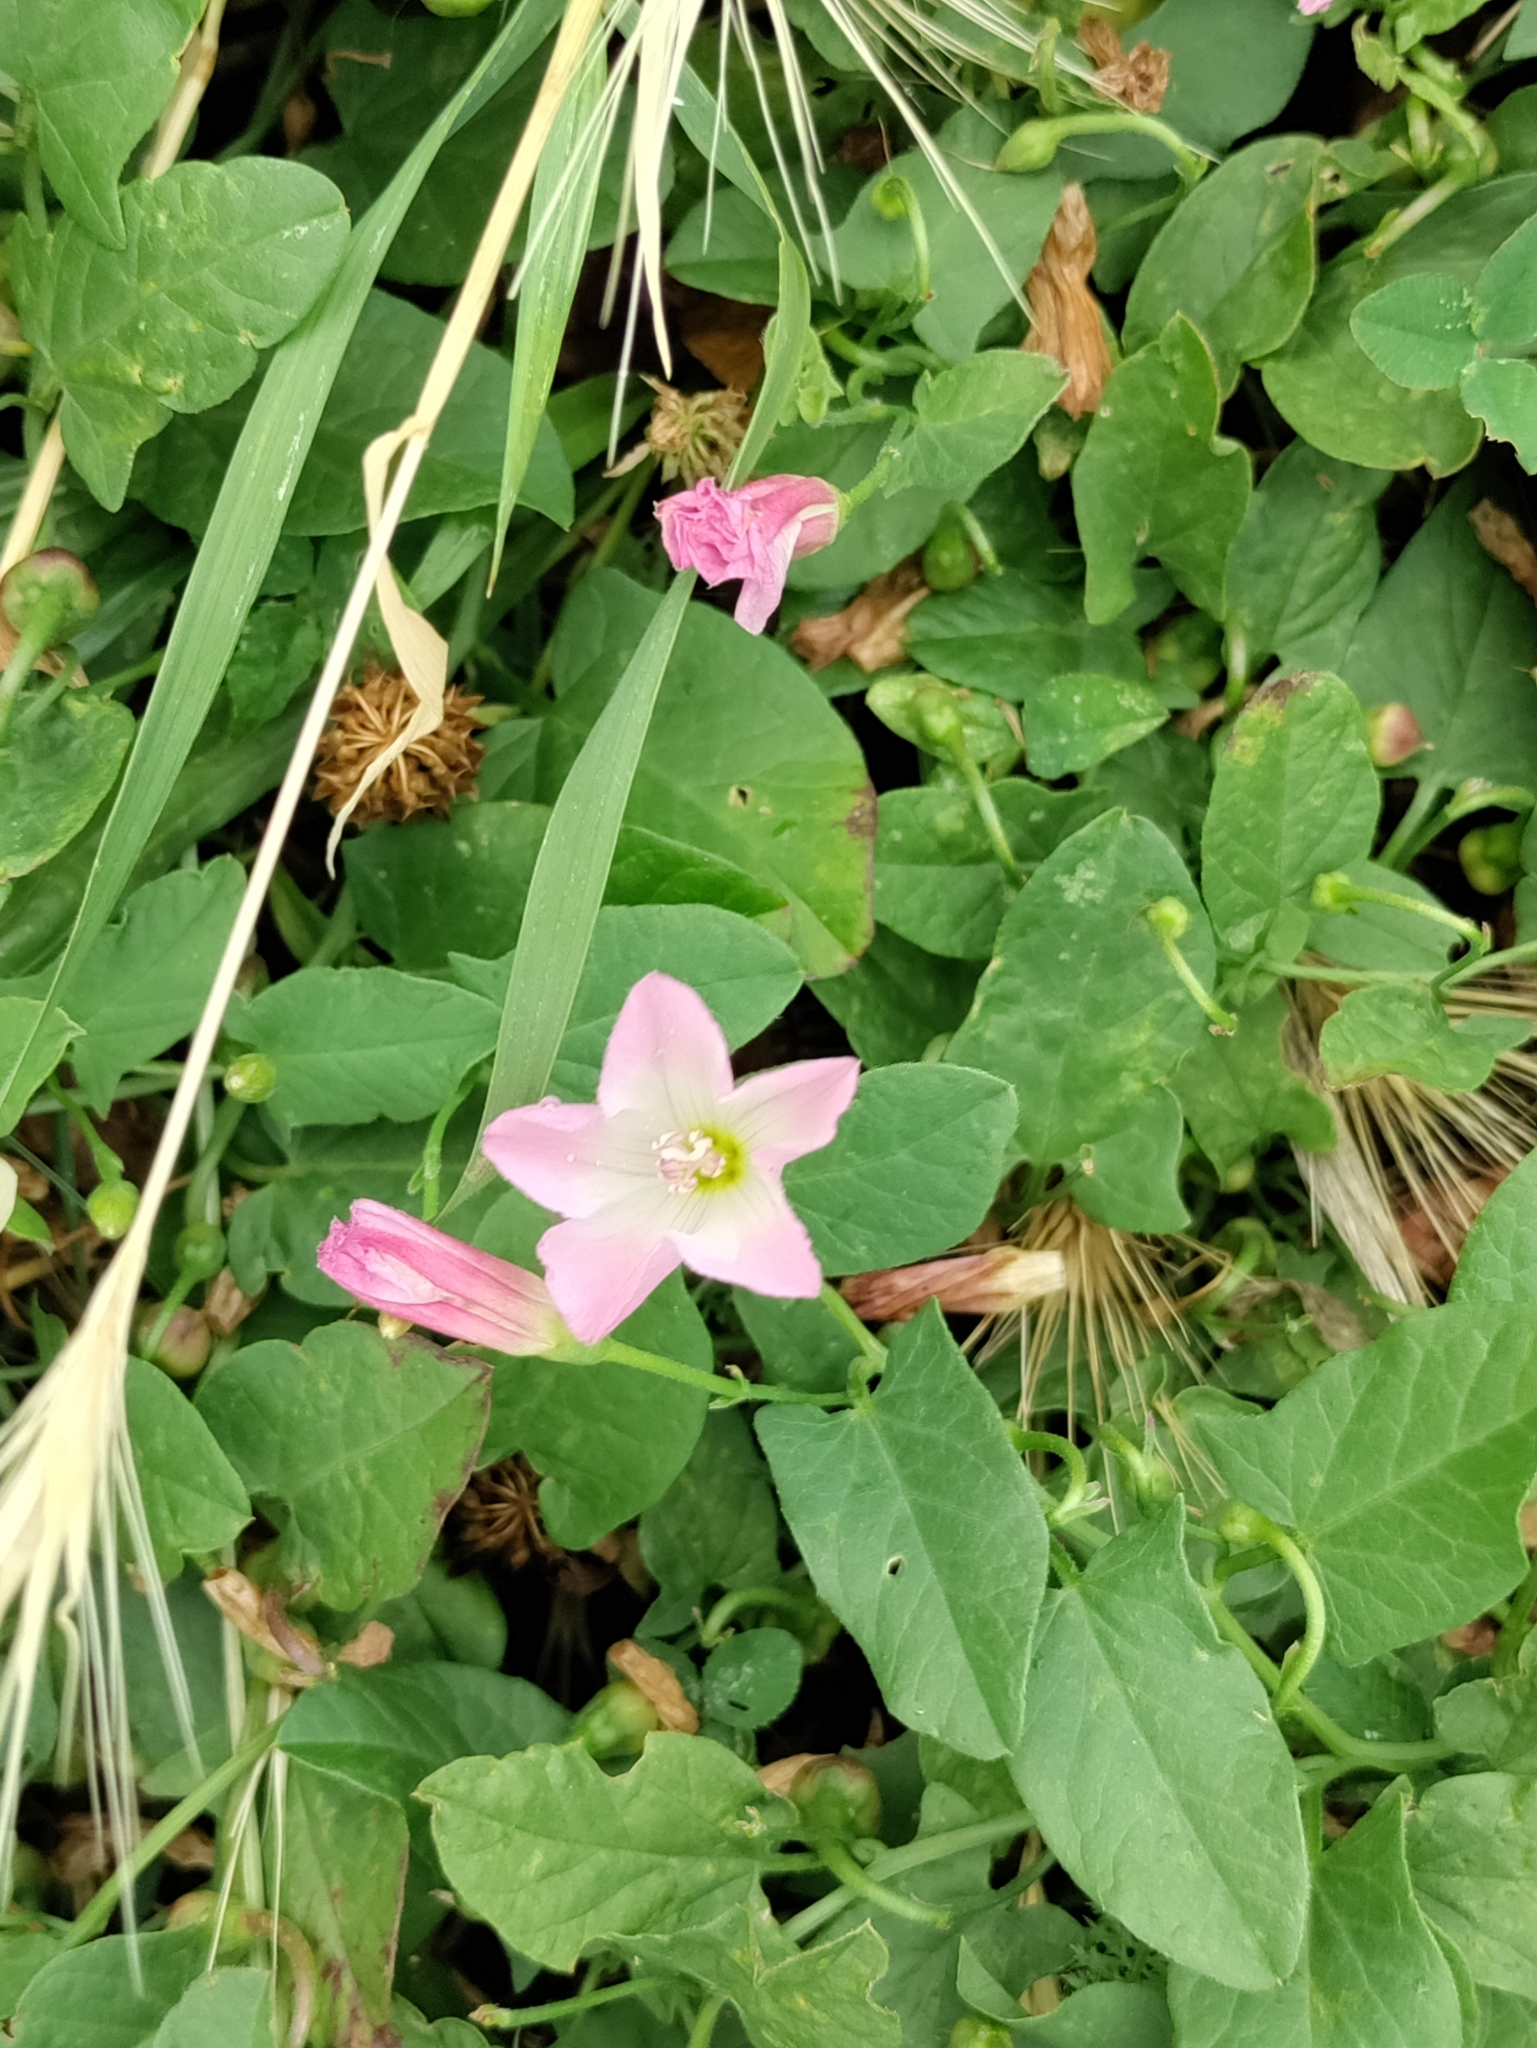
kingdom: Plantae
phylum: Tracheophyta
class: Magnoliopsida
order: Solanales
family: Convolvulaceae
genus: Convolvulus
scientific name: Convolvulus arvensis
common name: Field bindweed
